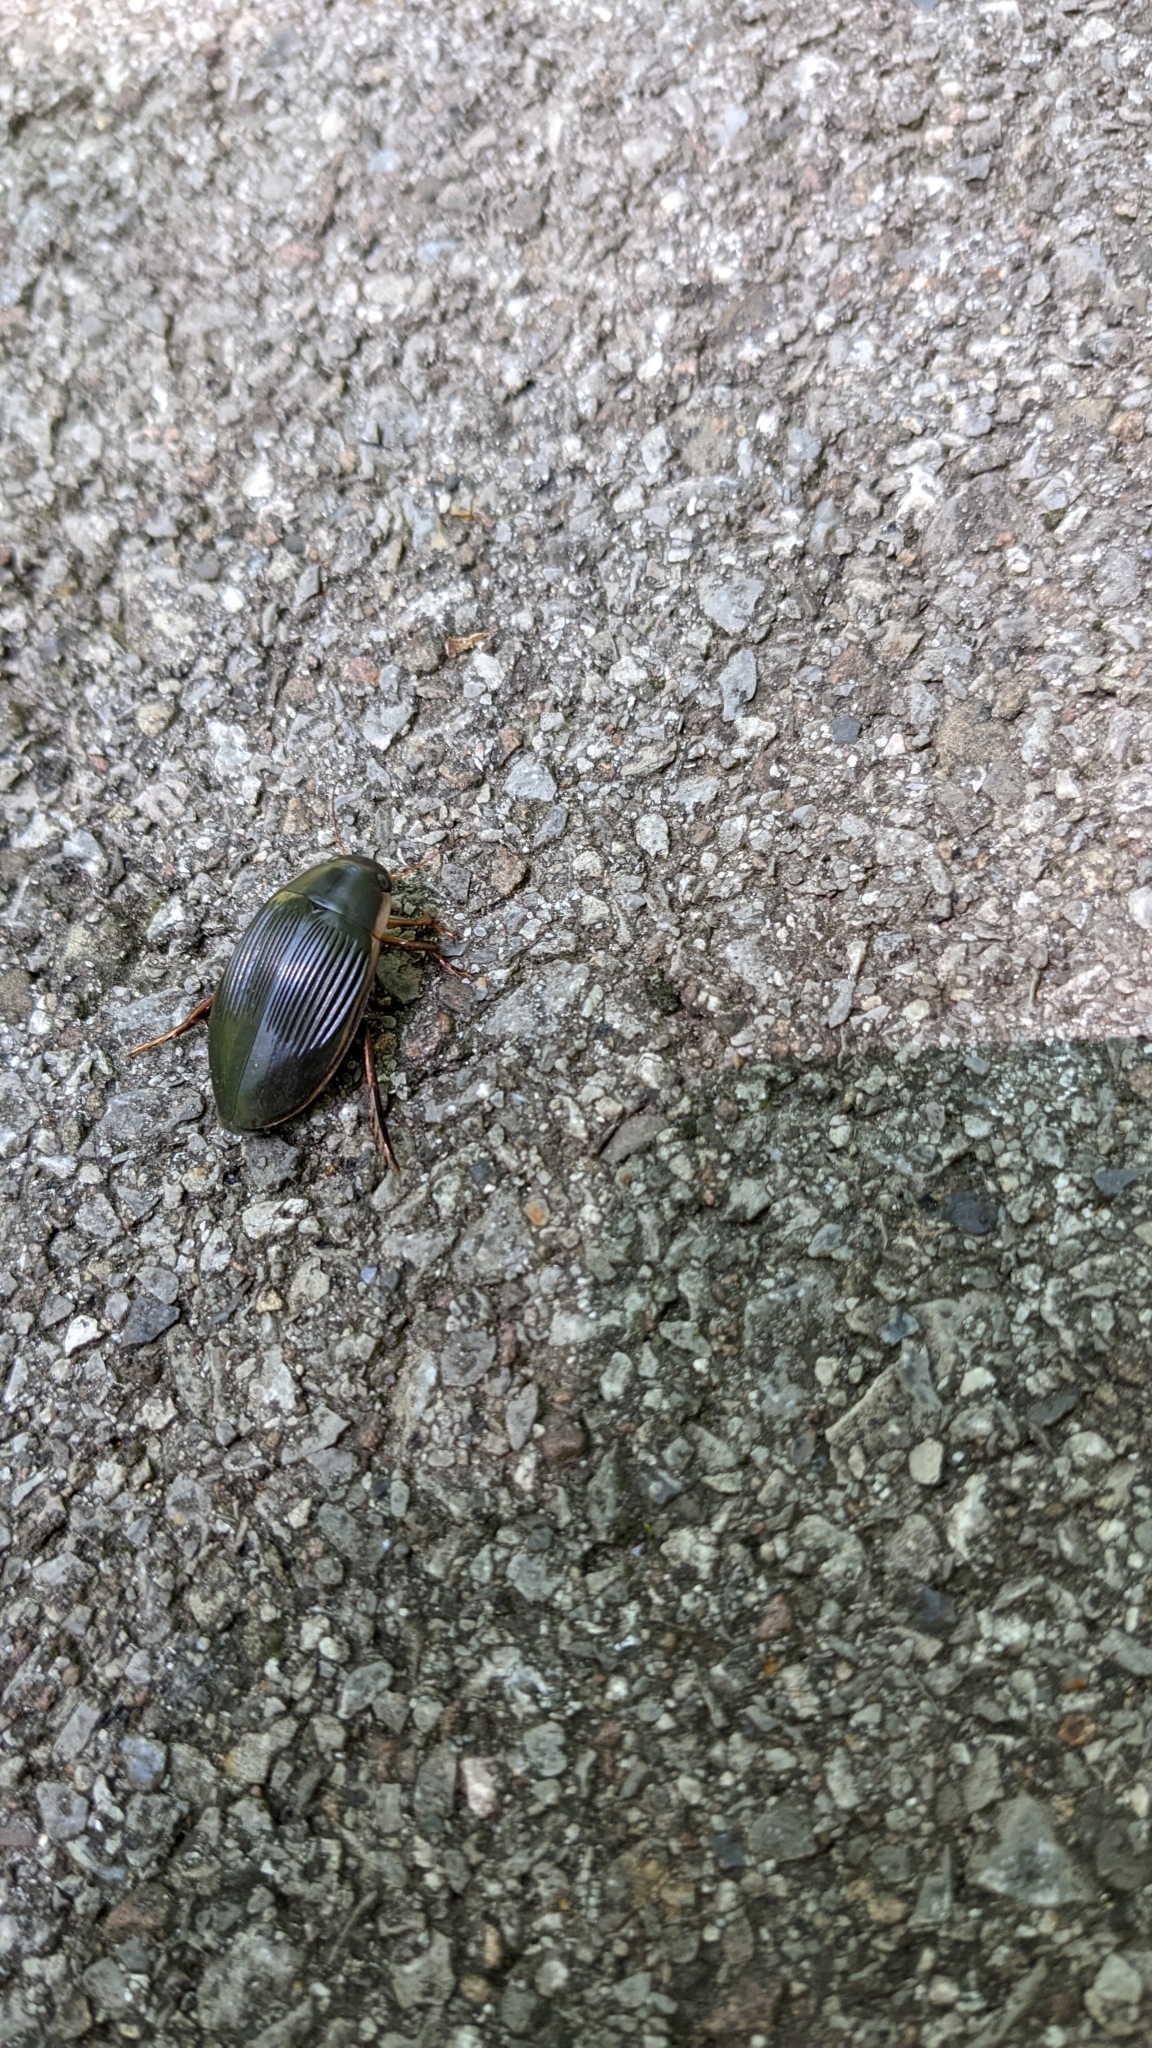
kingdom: Animalia
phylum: Arthropoda
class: Insecta
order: Coleoptera
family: Dytiscidae
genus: Dytiscus
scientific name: Dytiscus fasciventris
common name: Understriped diving beetle
